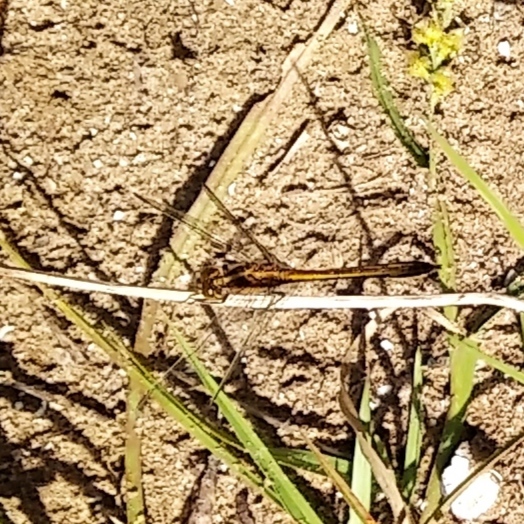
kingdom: Animalia
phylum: Arthropoda
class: Insecta
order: Odonata
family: Libellulidae
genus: Erythrodiplax
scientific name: Erythrodiplax nigricans
